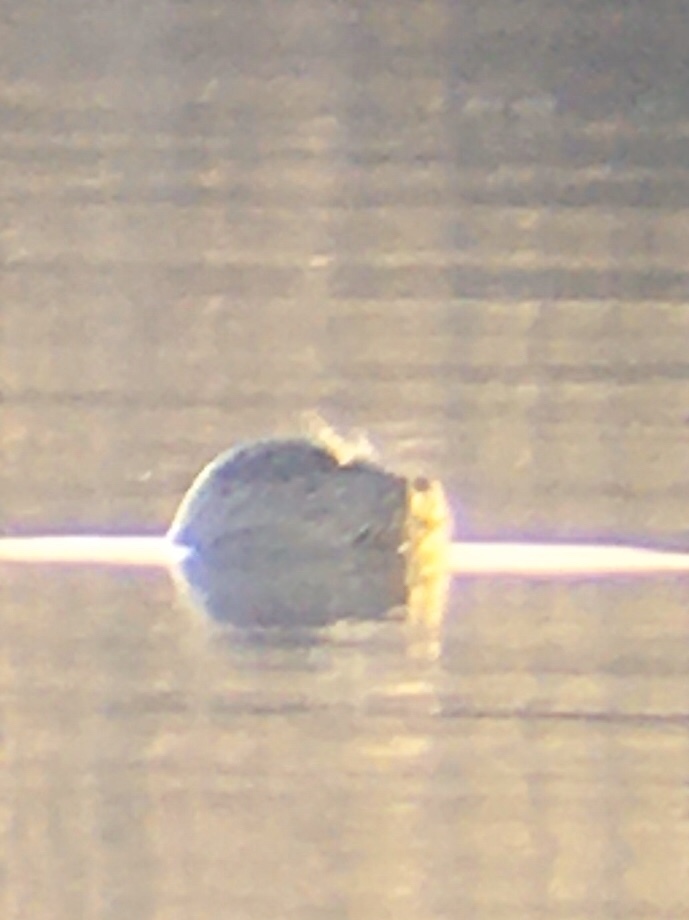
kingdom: Animalia
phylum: Chordata
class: Mammalia
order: Carnivora
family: Phocidae
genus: Phoca
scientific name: Phoca vitulina
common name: Harbor seal
